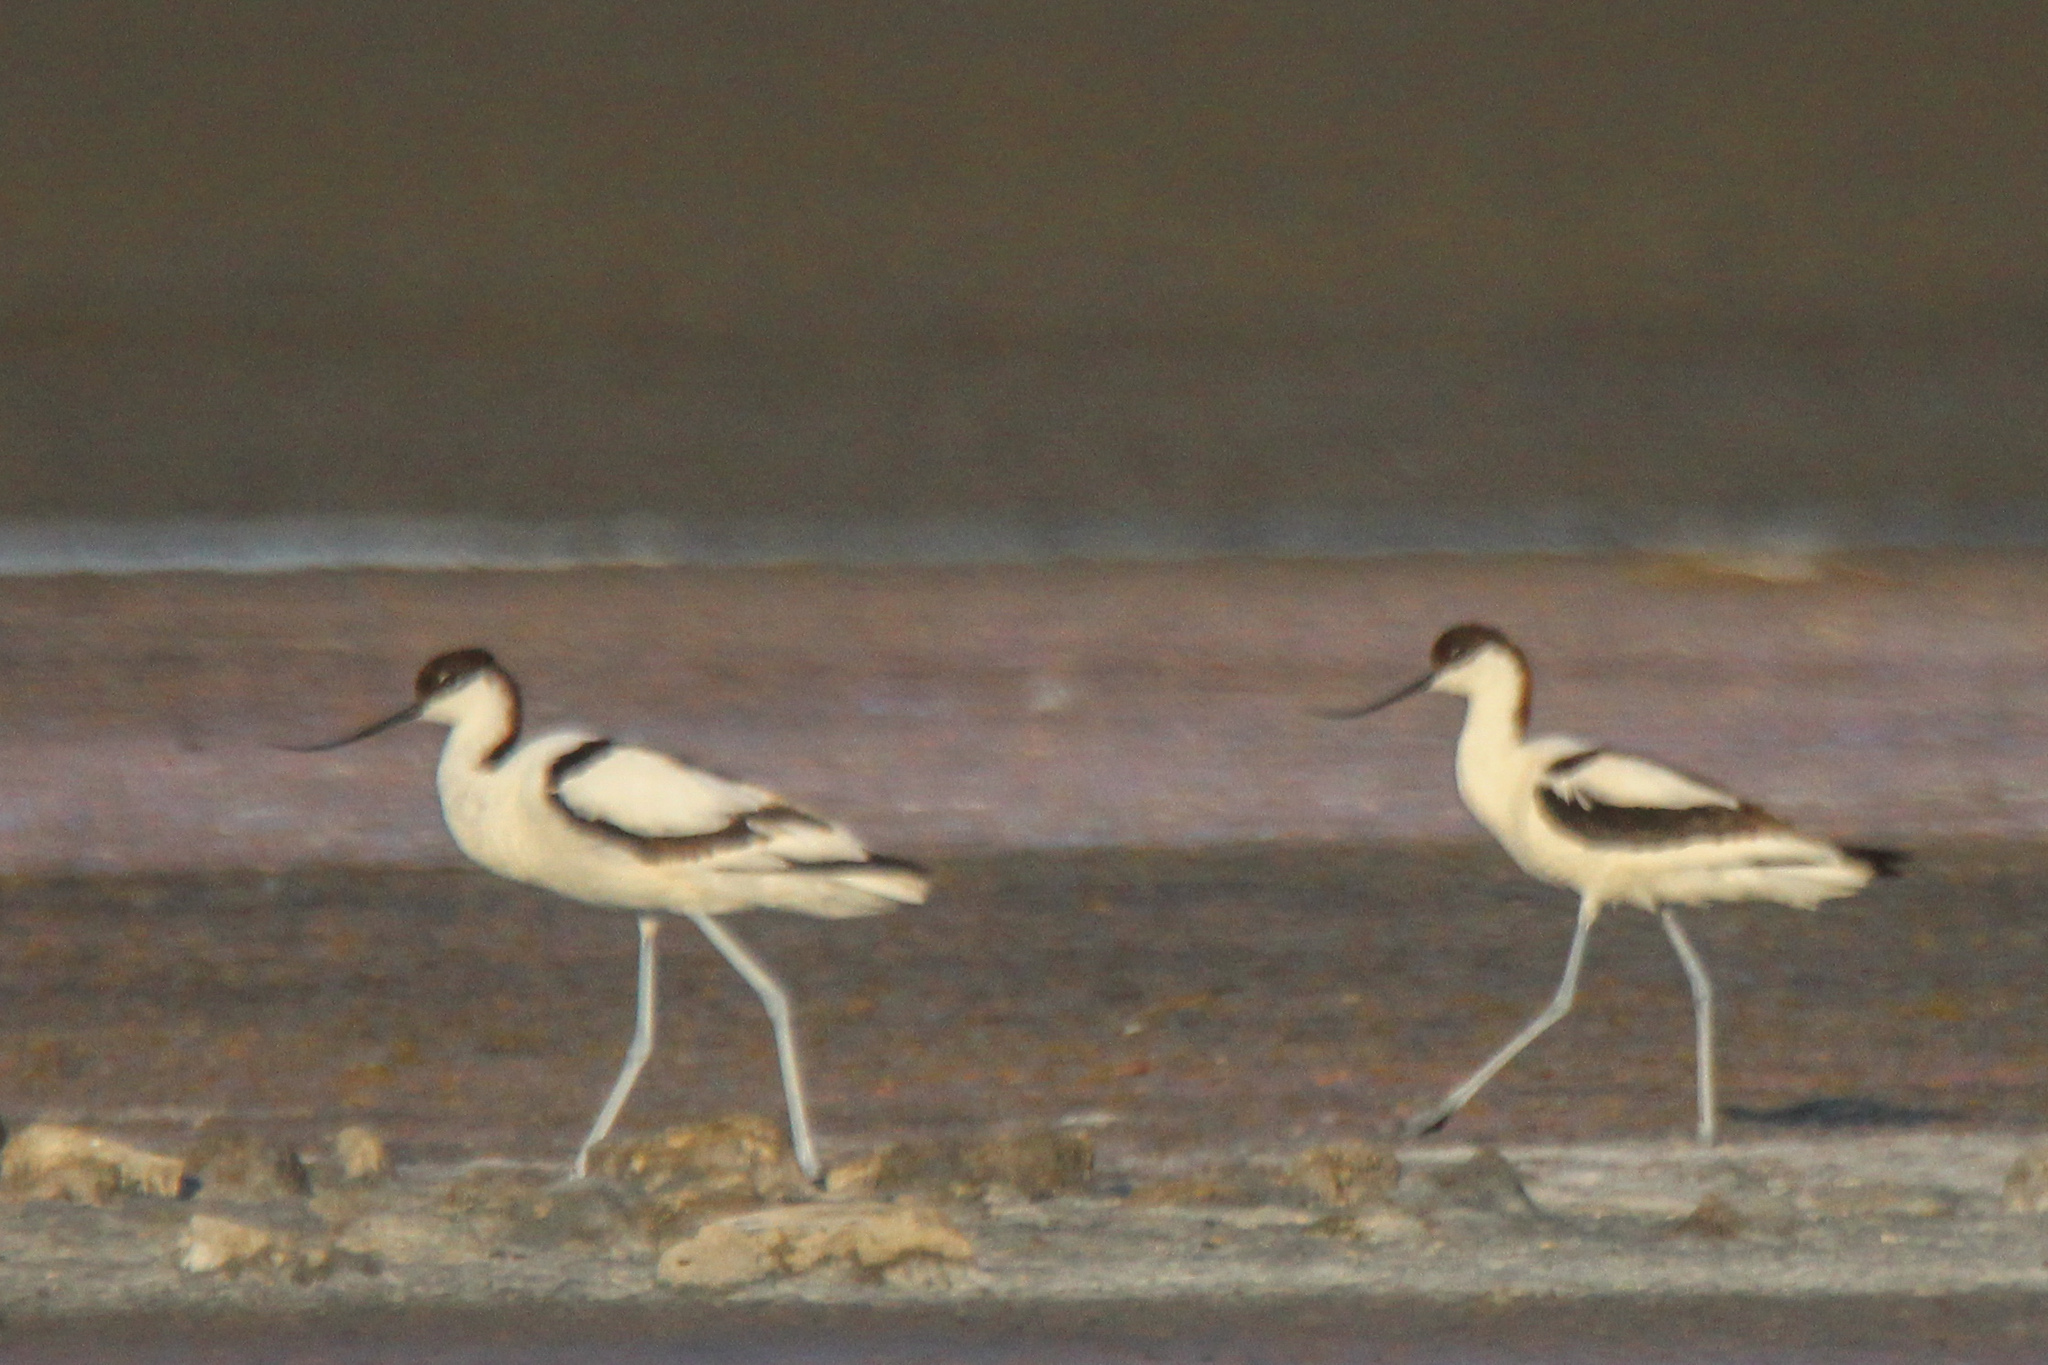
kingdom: Animalia
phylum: Chordata
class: Aves
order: Charadriiformes
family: Recurvirostridae
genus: Recurvirostra
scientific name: Recurvirostra avosetta
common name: Pied avocet
